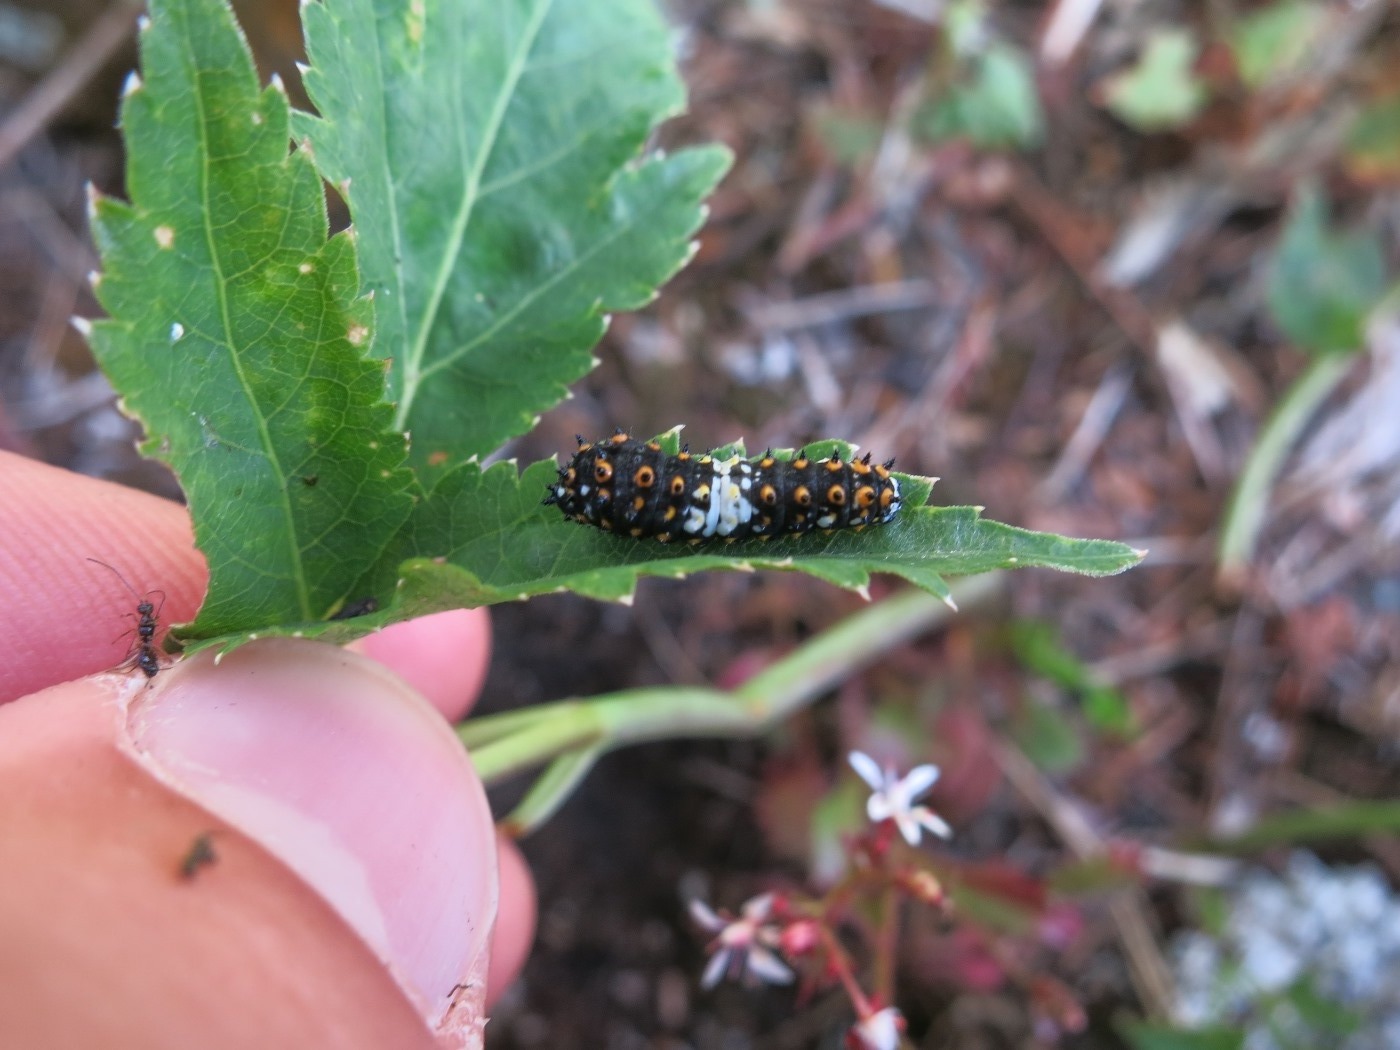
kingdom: Animalia
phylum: Arthropoda
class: Insecta
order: Lepidoptera
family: Papilionidae
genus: Papilio
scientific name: Papilio polyxenes
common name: Black swallowtail
